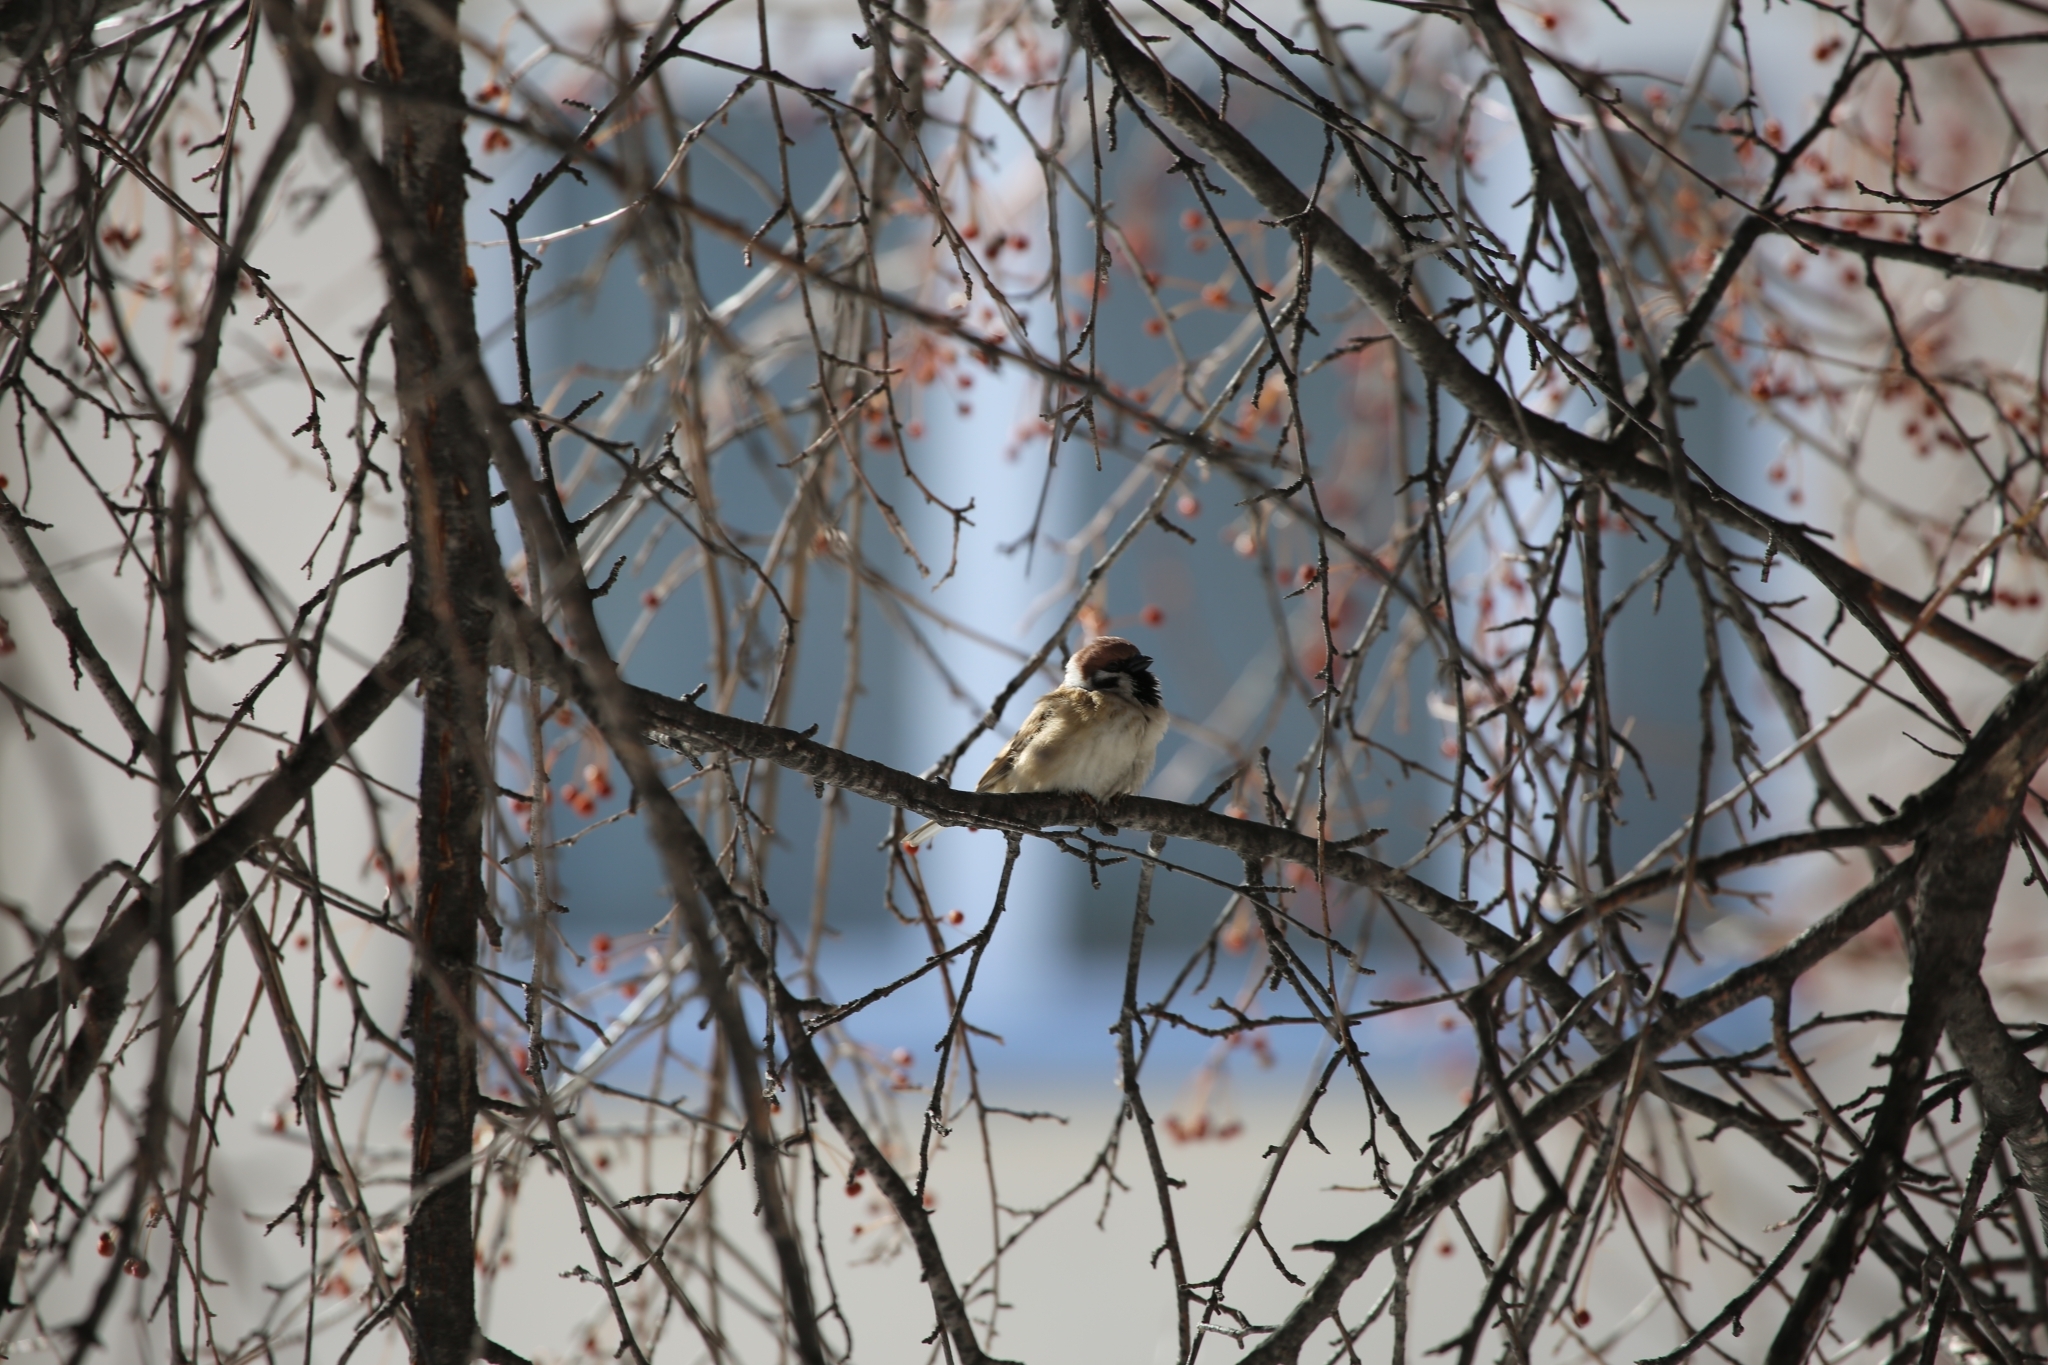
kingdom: Animalia
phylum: Chordata
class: Aves
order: Passeriformes
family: Passeridae
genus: Passer
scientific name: Passer montanus
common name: Eurasian tree sparrow
